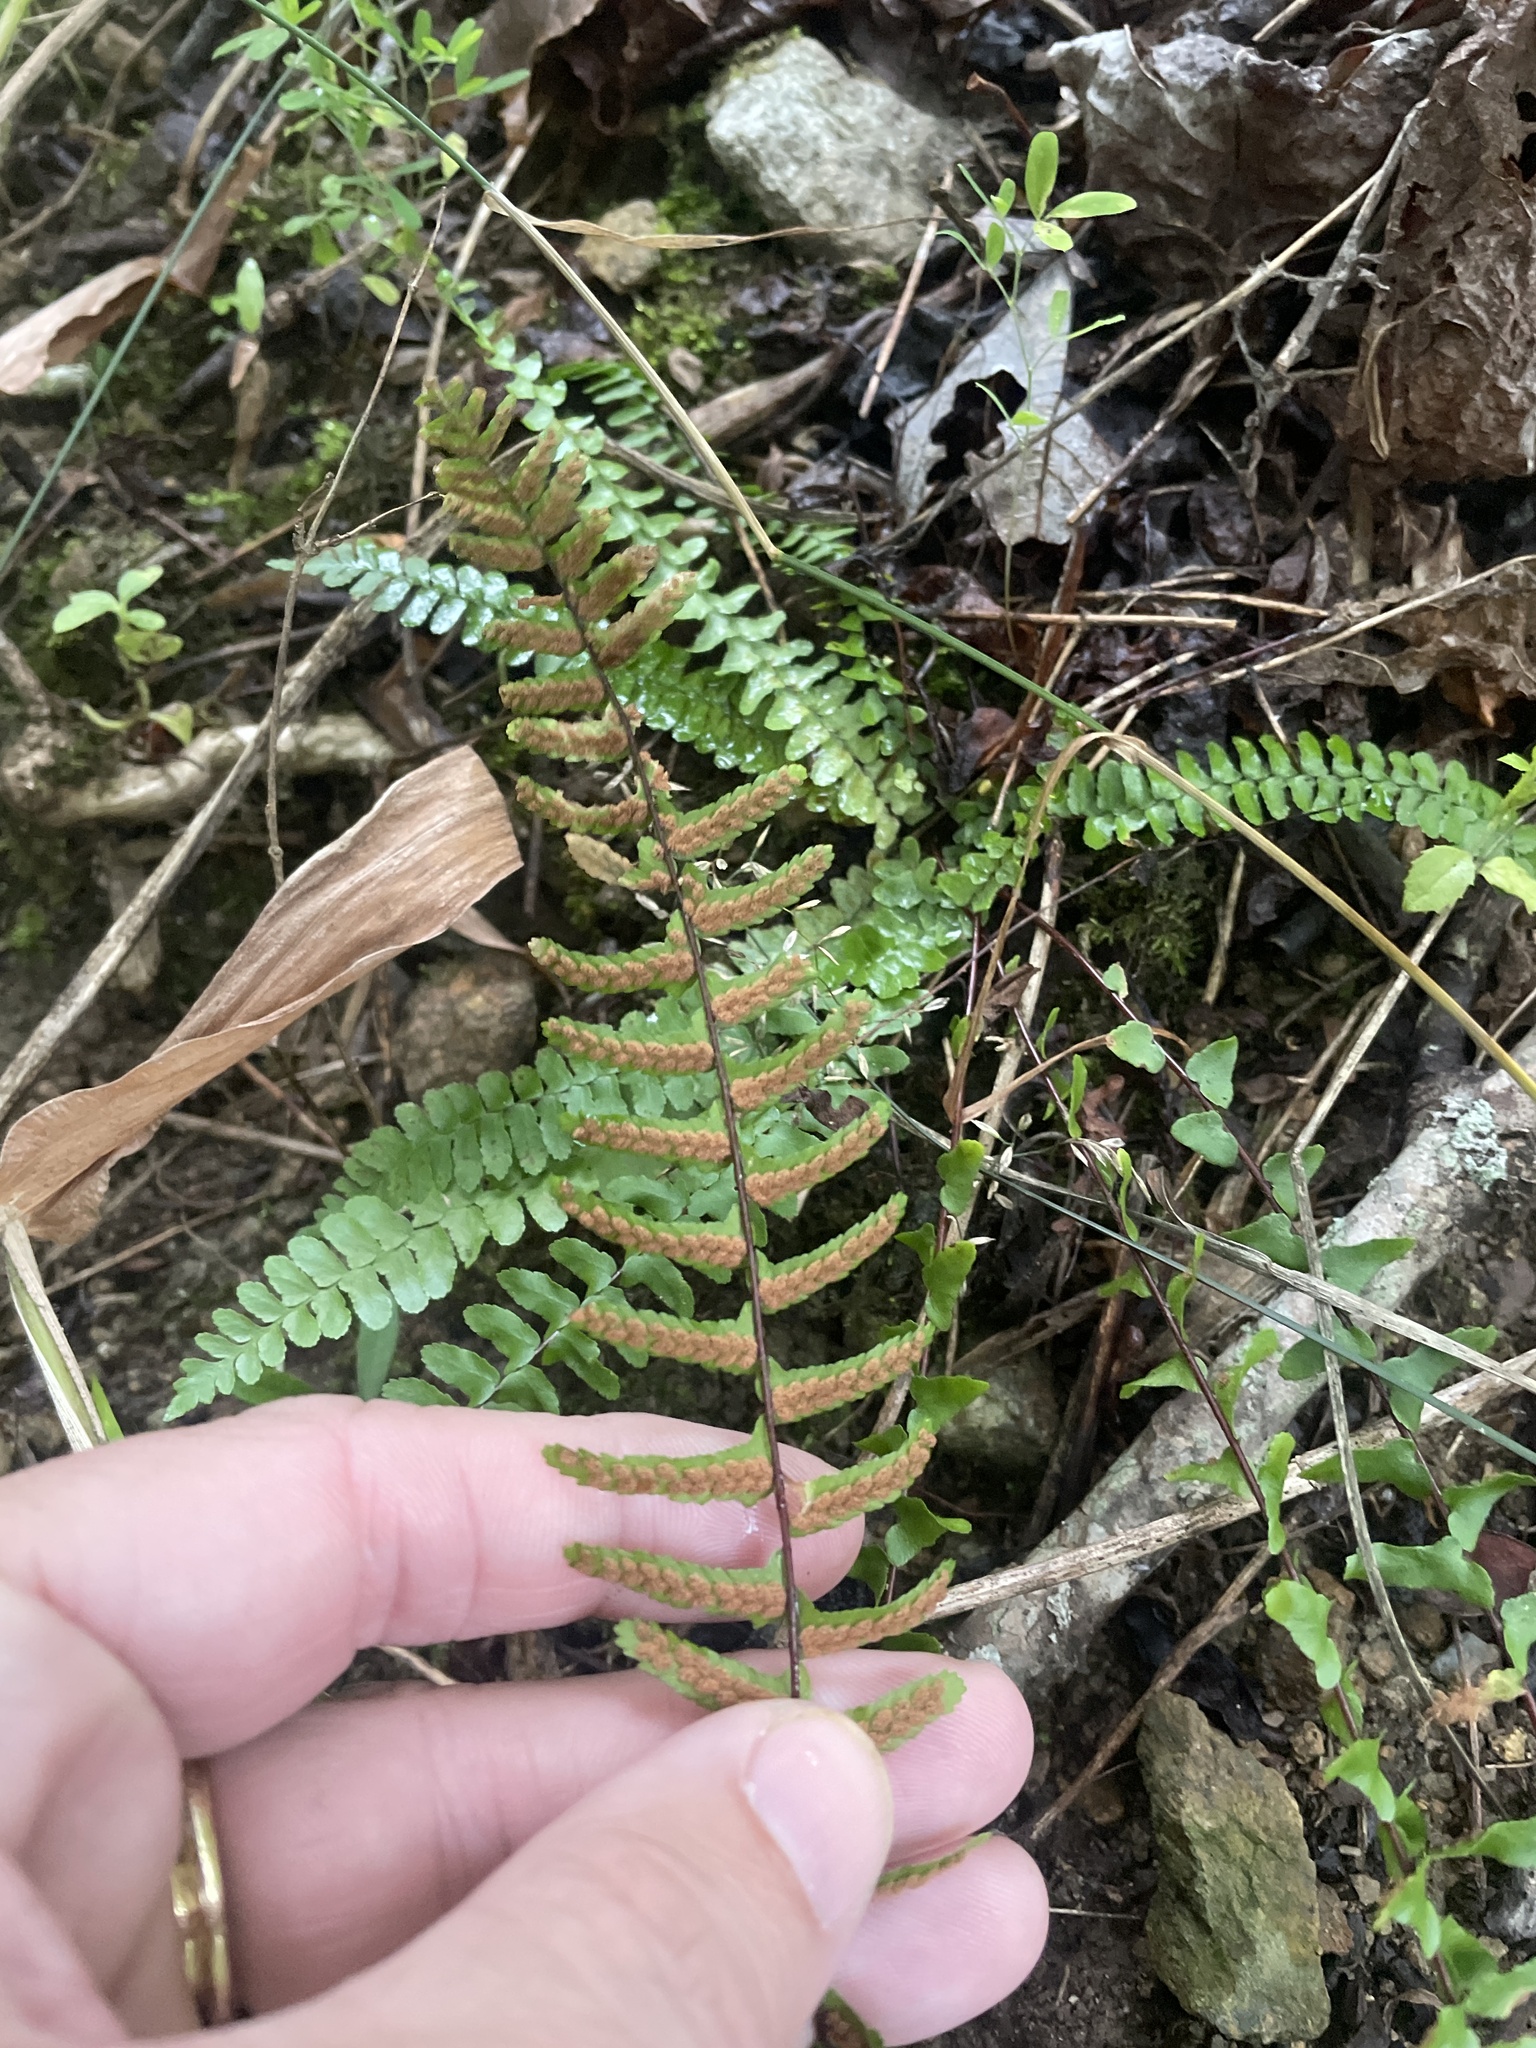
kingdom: Plantae
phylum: Tracheophyta
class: Polypodiopsida
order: Polypodiales
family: Aspleniaceae
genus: Asplenium
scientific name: Asplenium platyneuron
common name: Ebony spleenwort
